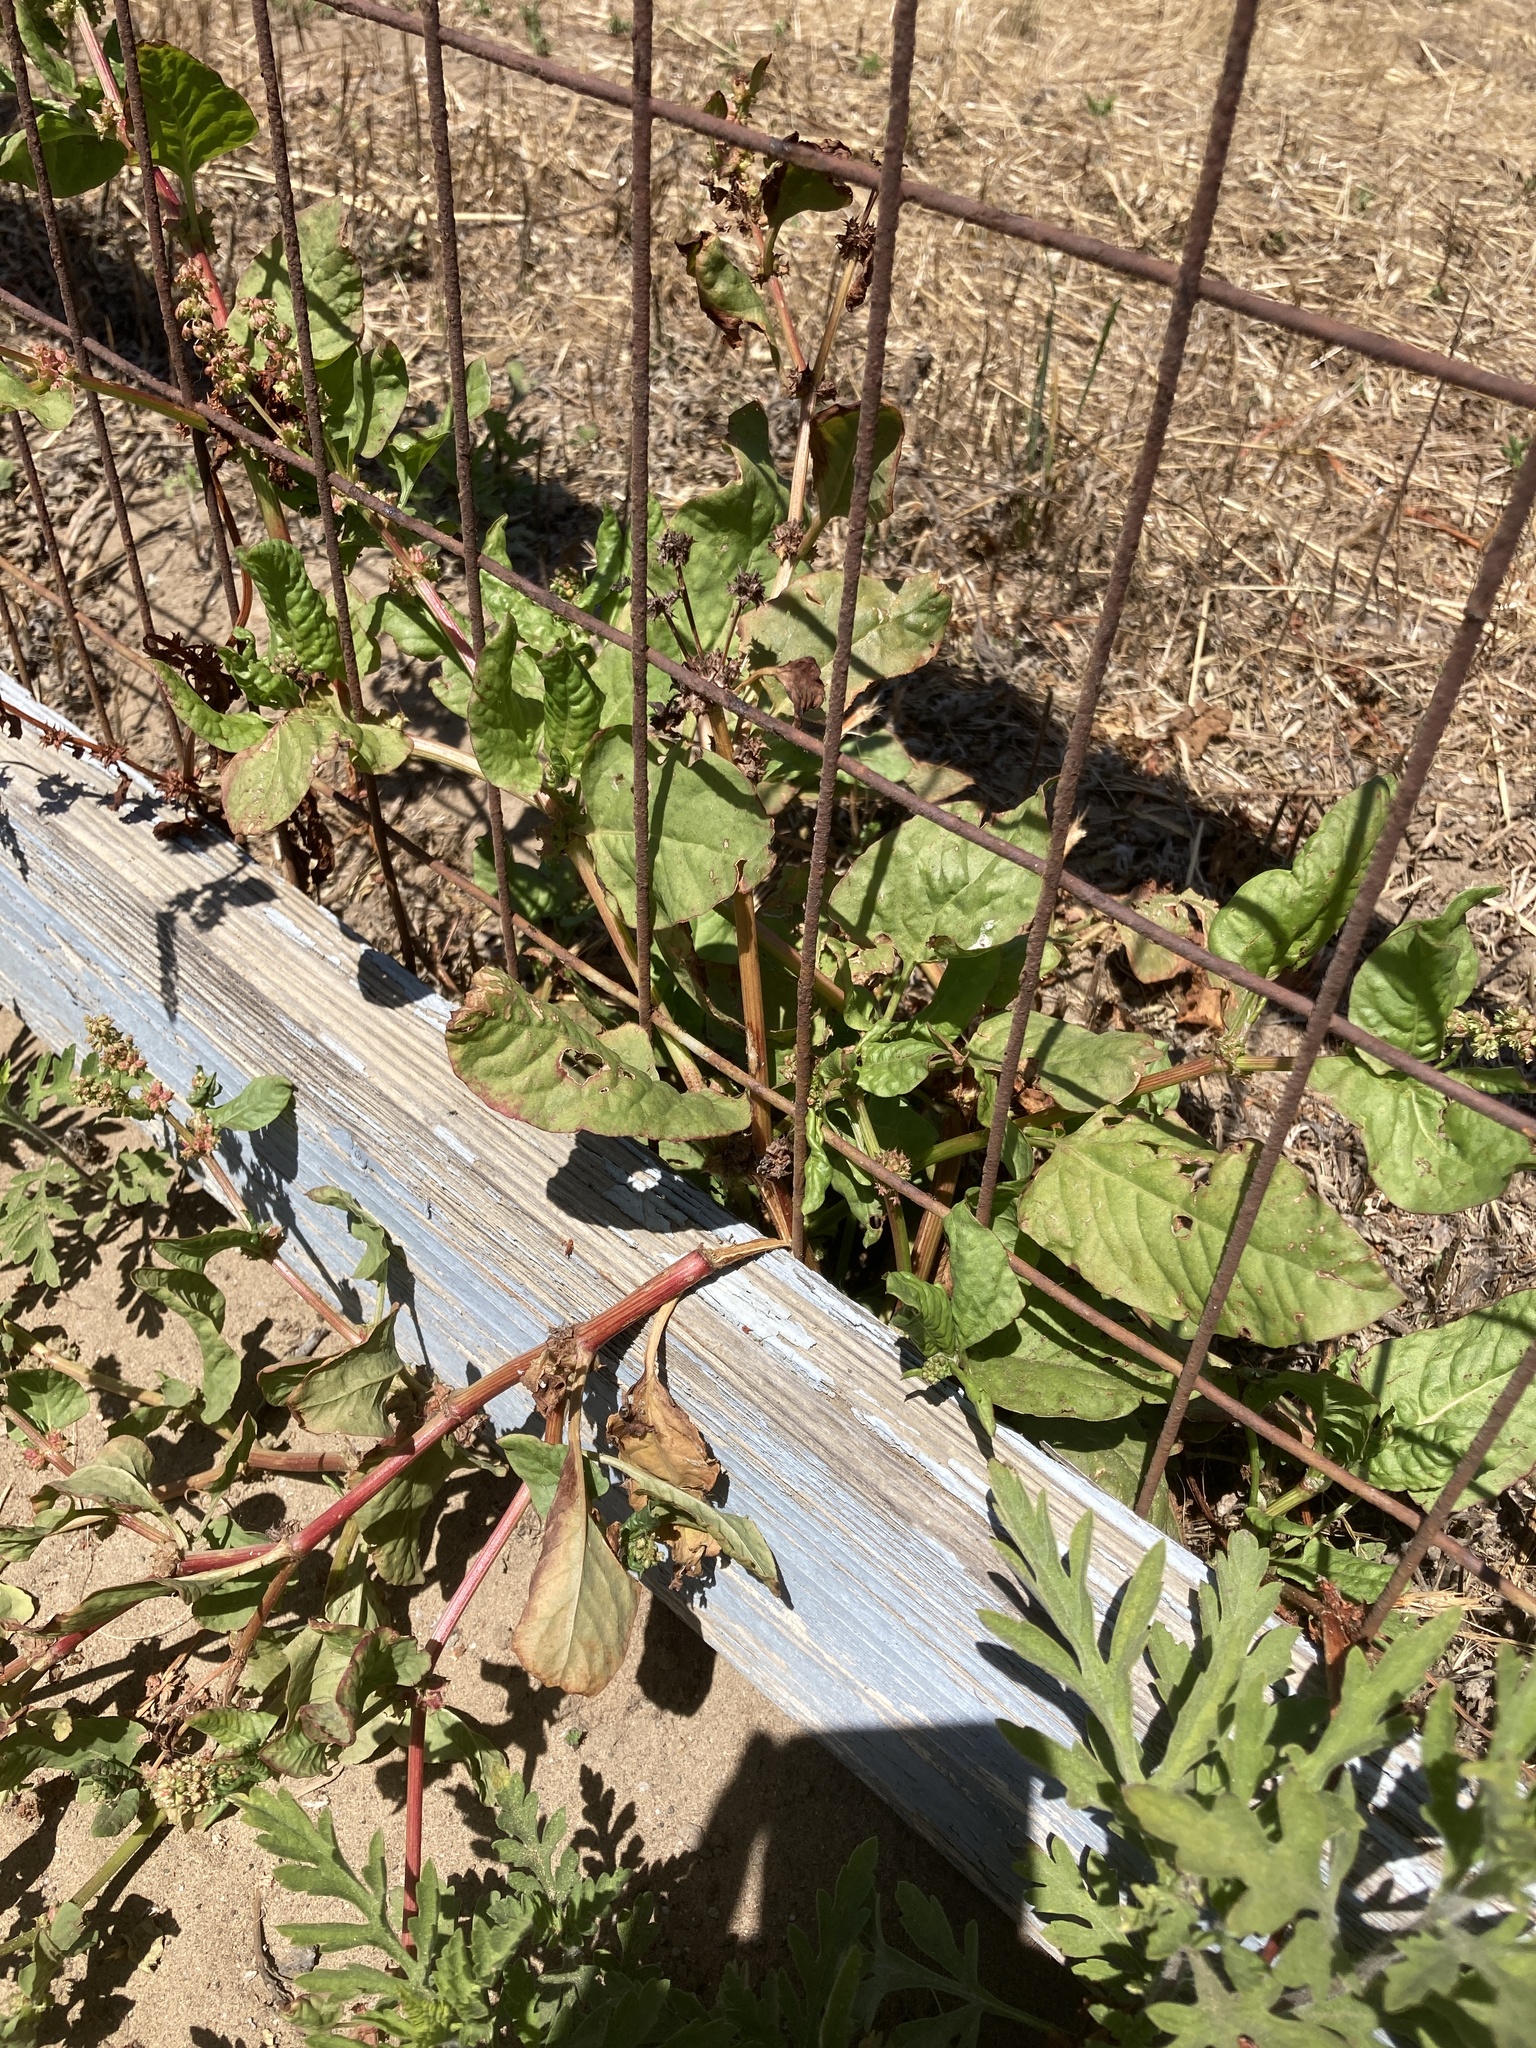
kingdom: Plantae
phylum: Tracheophyta
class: Magnoliopsida
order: Caryophyllales
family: Polygonaceae
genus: Rumex
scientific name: Rumex spinosus
